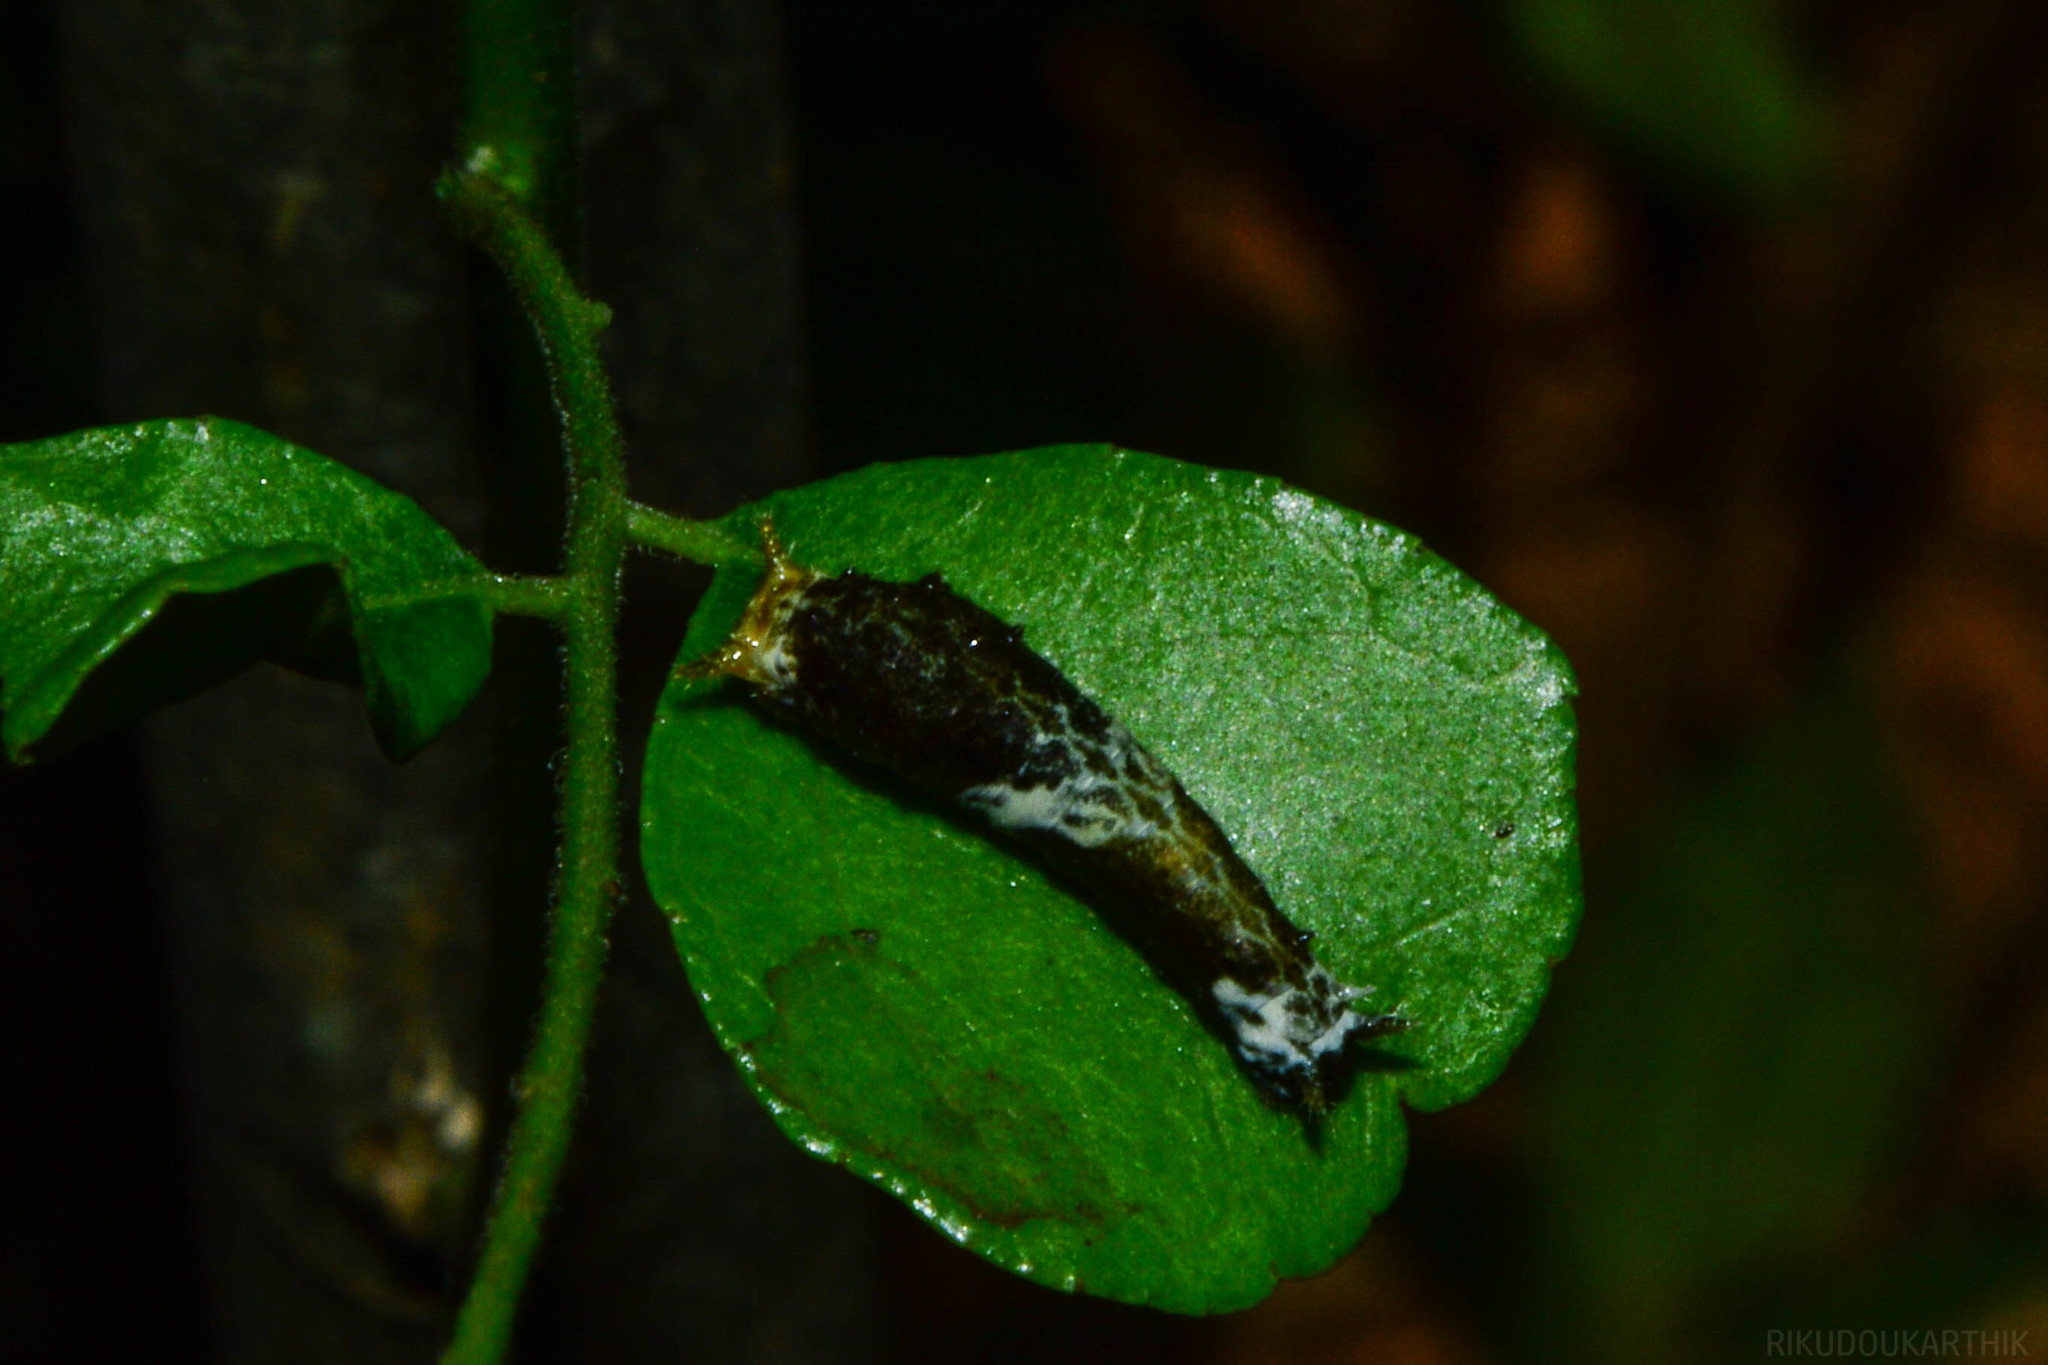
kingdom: Animalia
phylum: Arthropoda
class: Insecta
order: Lepidoptera
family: Papilionidae
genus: Papilio
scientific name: Papilio polytes
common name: Common mormon
